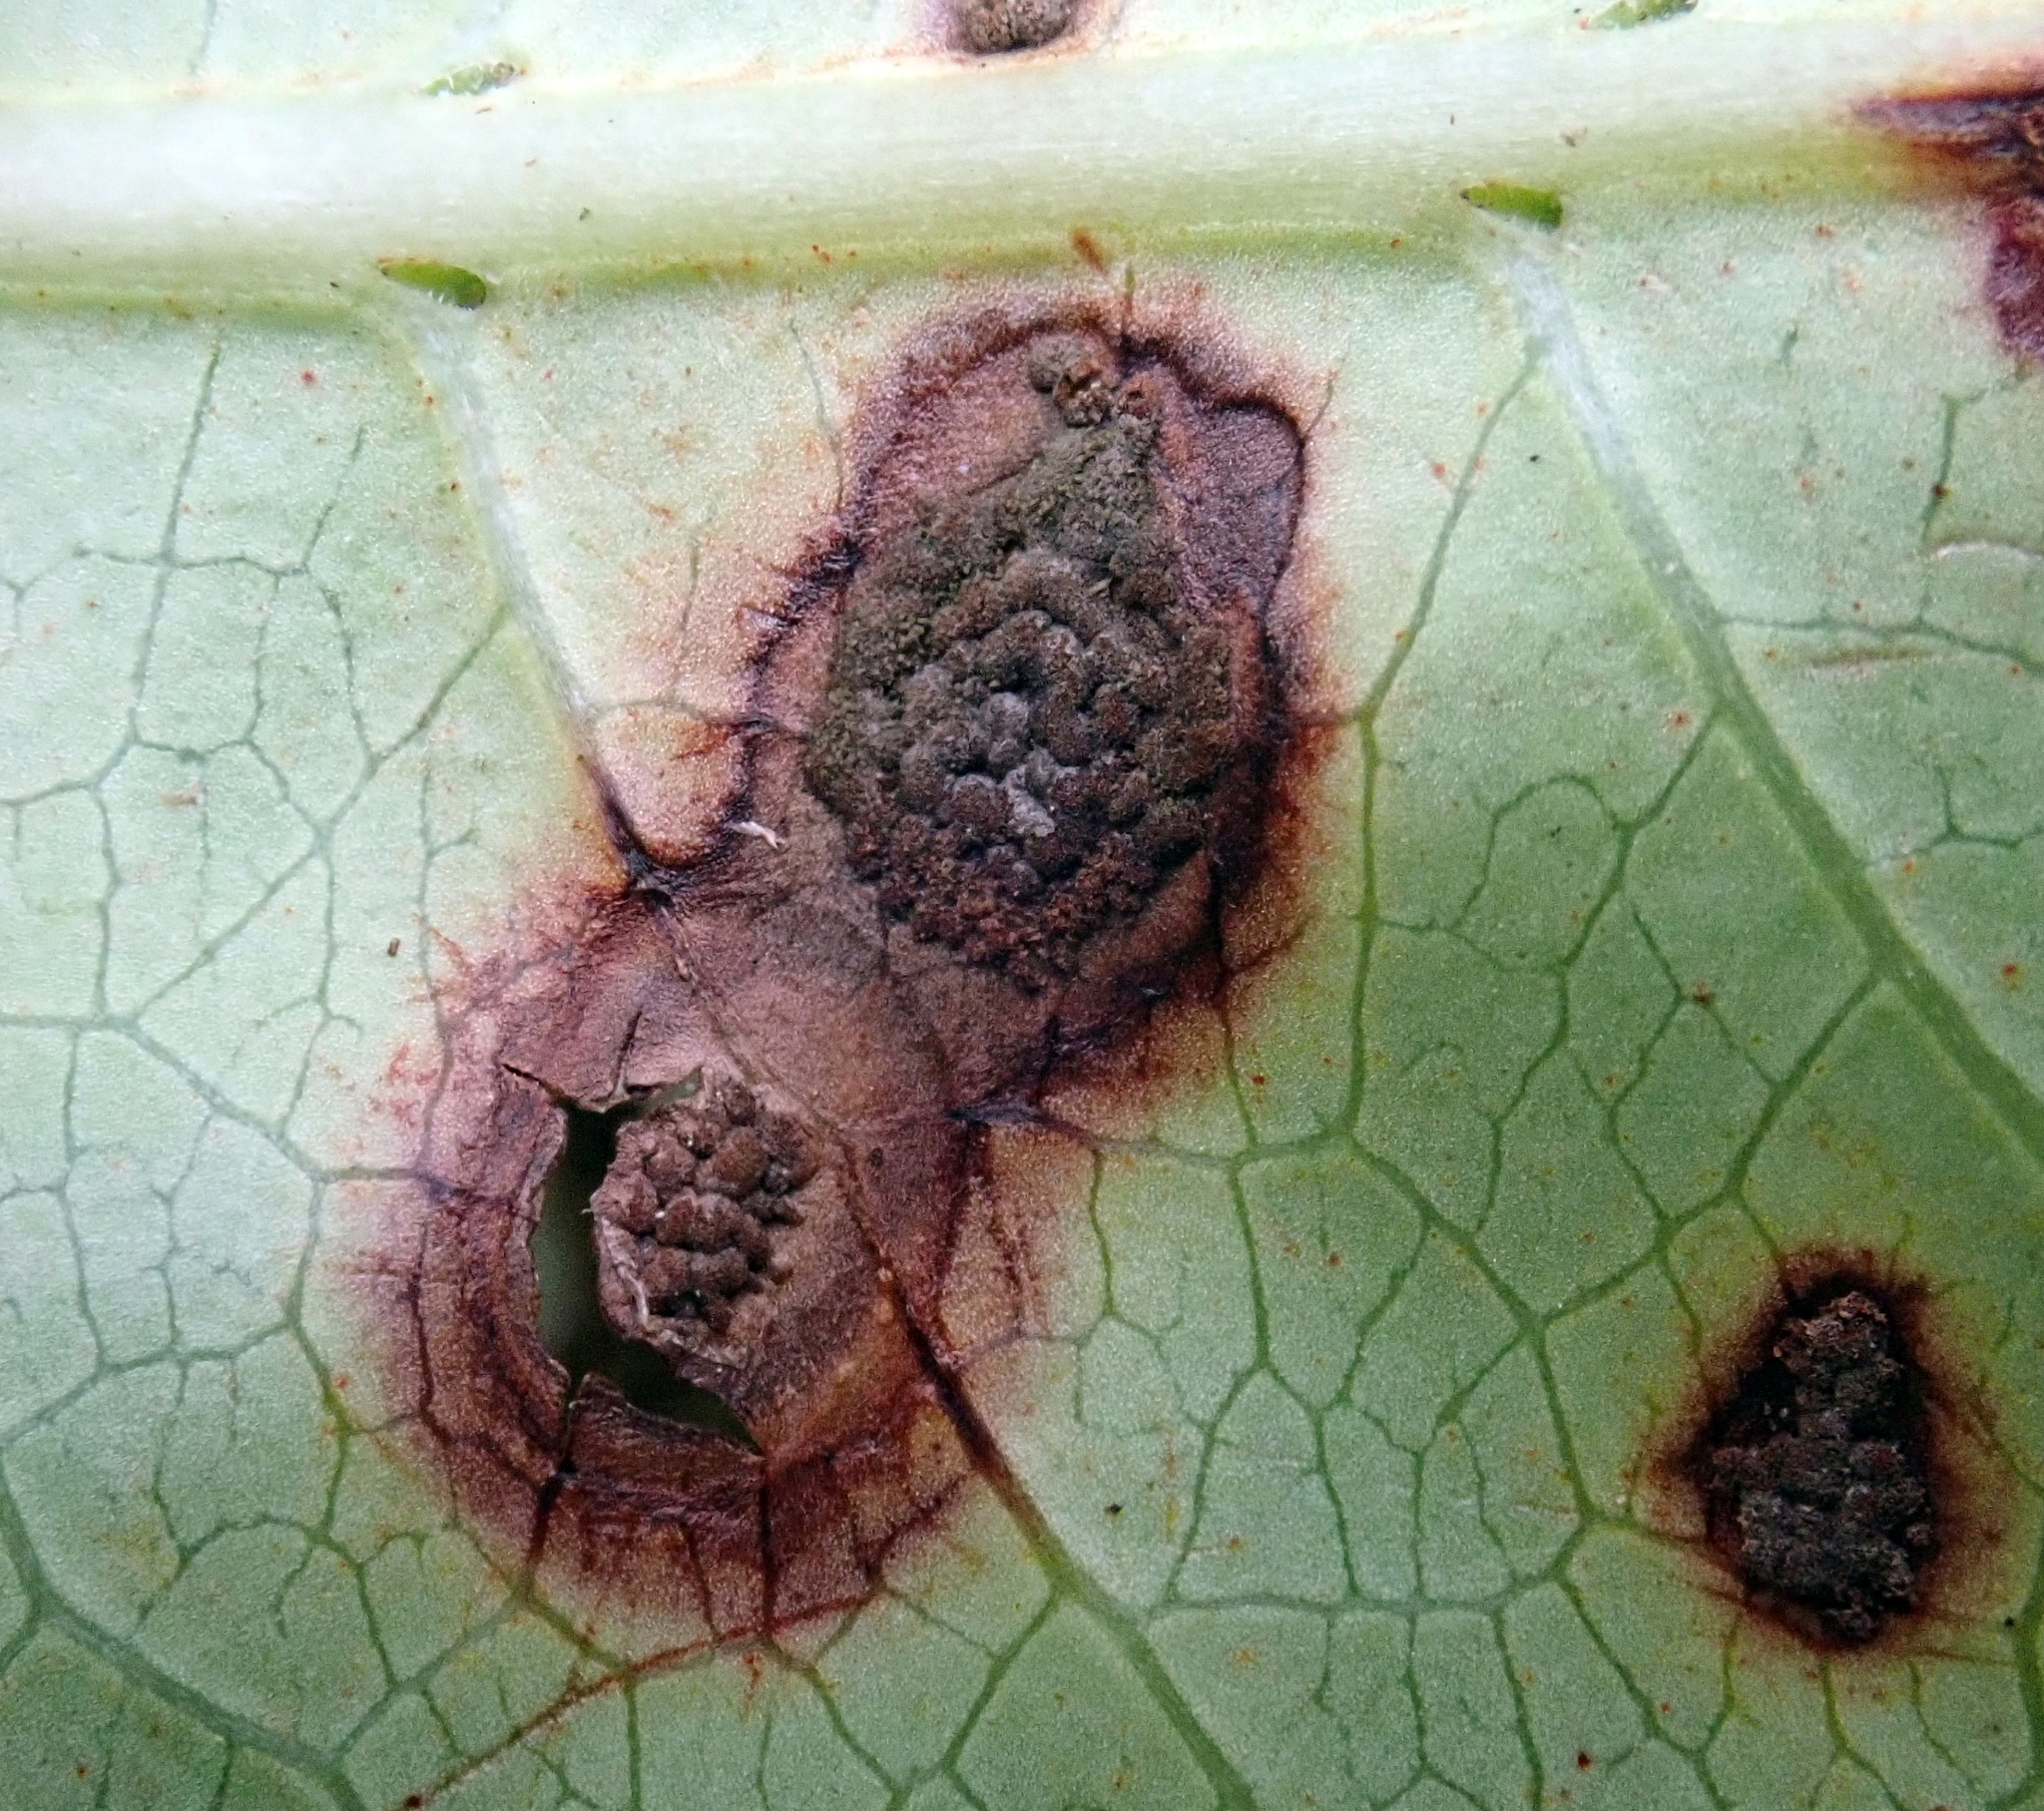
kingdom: Fungi
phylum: Basidiomycota
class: Pucciniomycetes
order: Pucciniales
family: Pucciniaceae
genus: Puccinia
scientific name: Puccinia coprosmae
